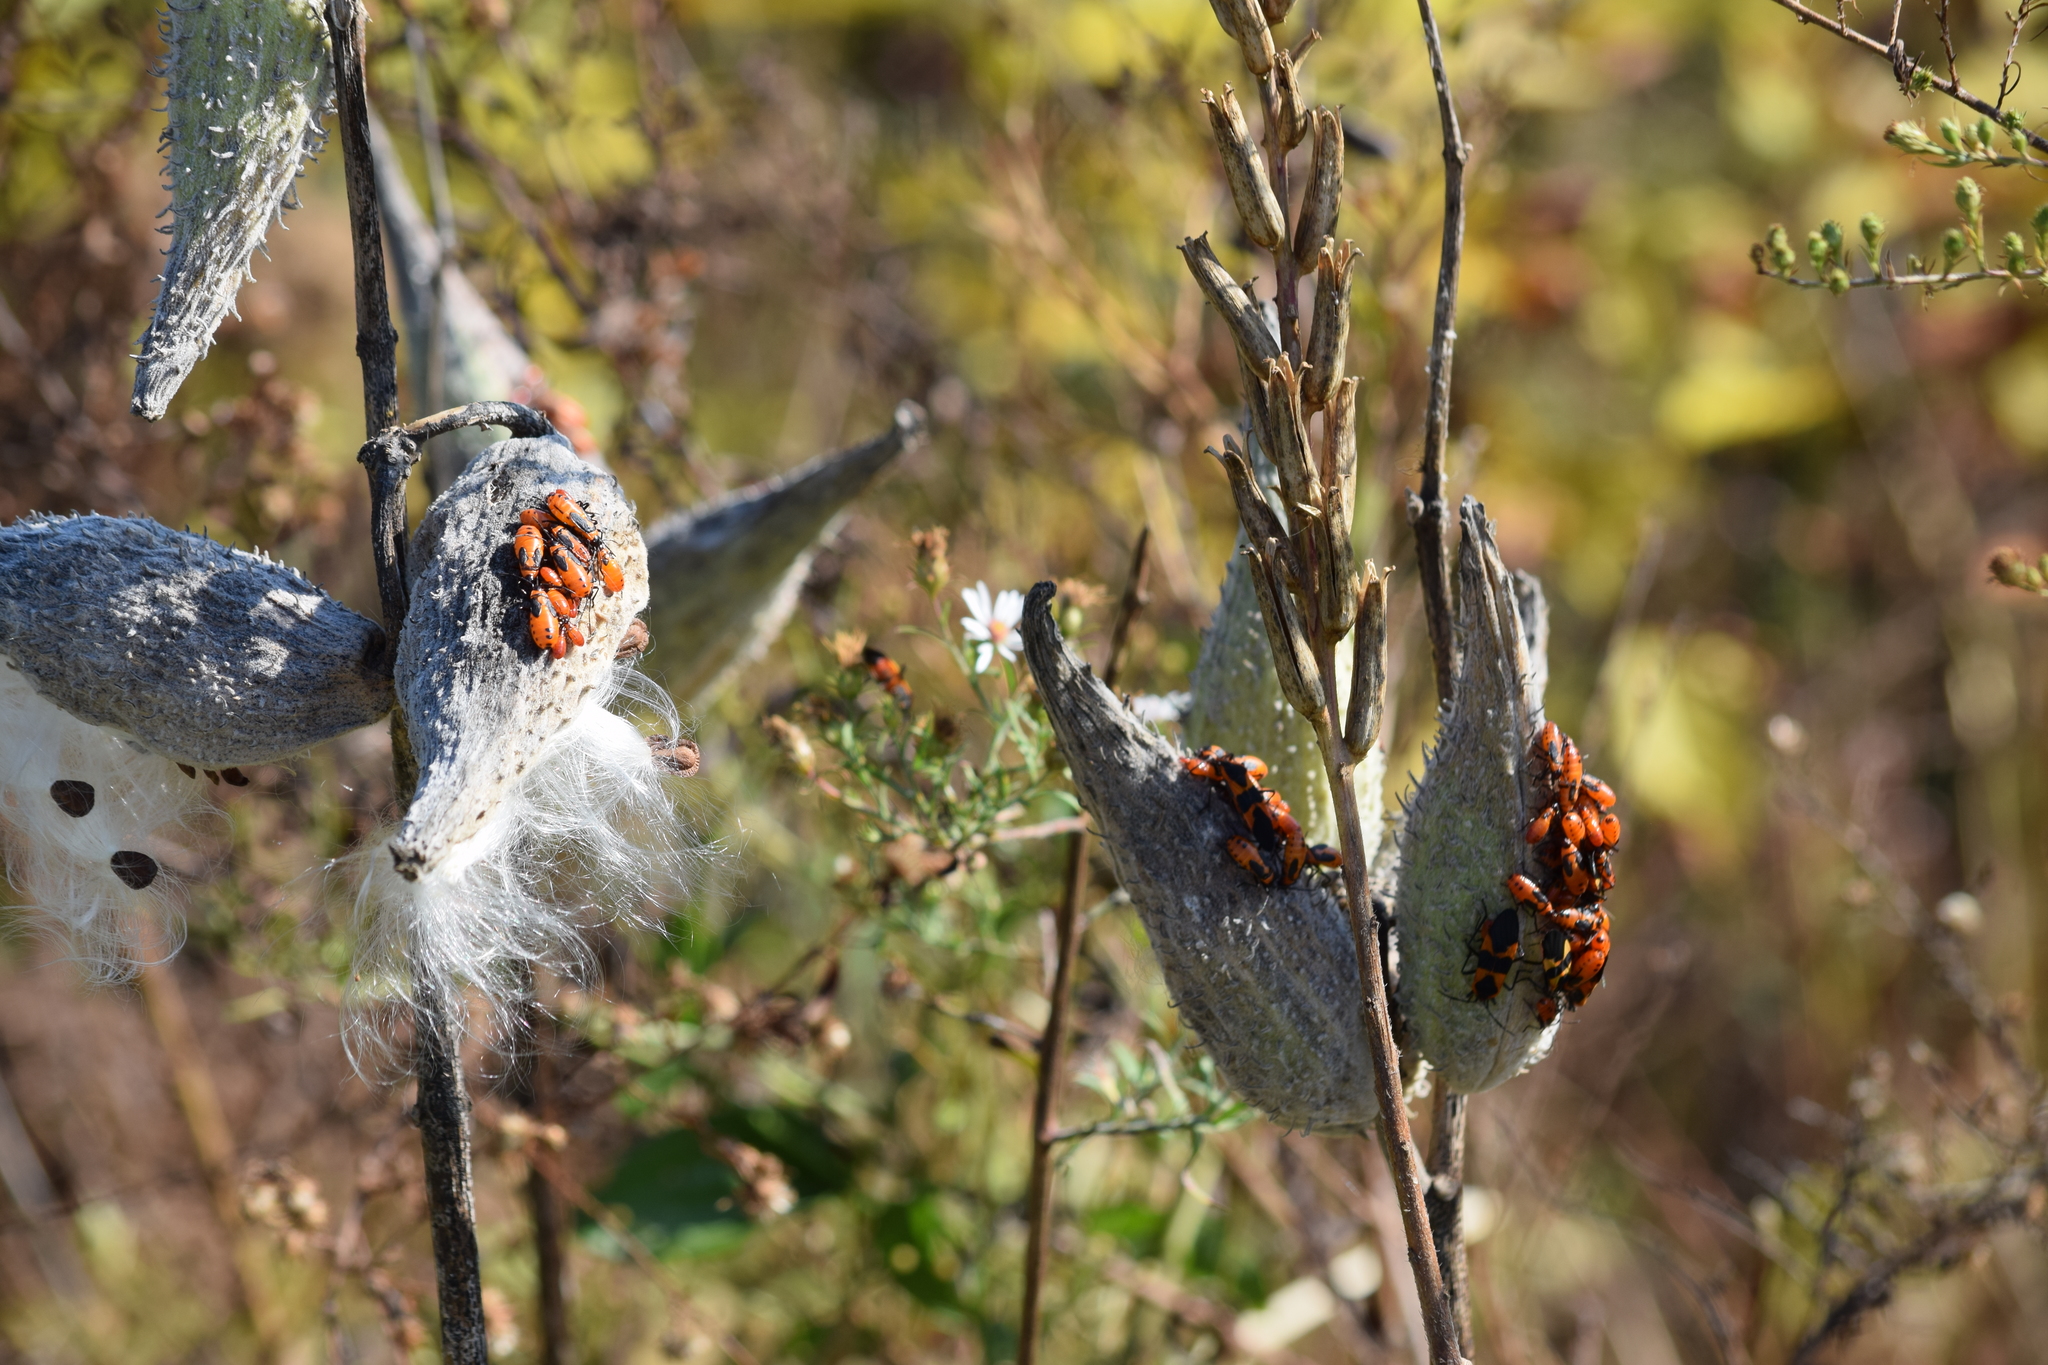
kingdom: Animalia
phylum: Arthropoda
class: Insecta
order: Hemiptera
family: Lygaeidae
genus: Oncopeltus
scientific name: Oncopeltus fasciatus
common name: Large milkweed bug
